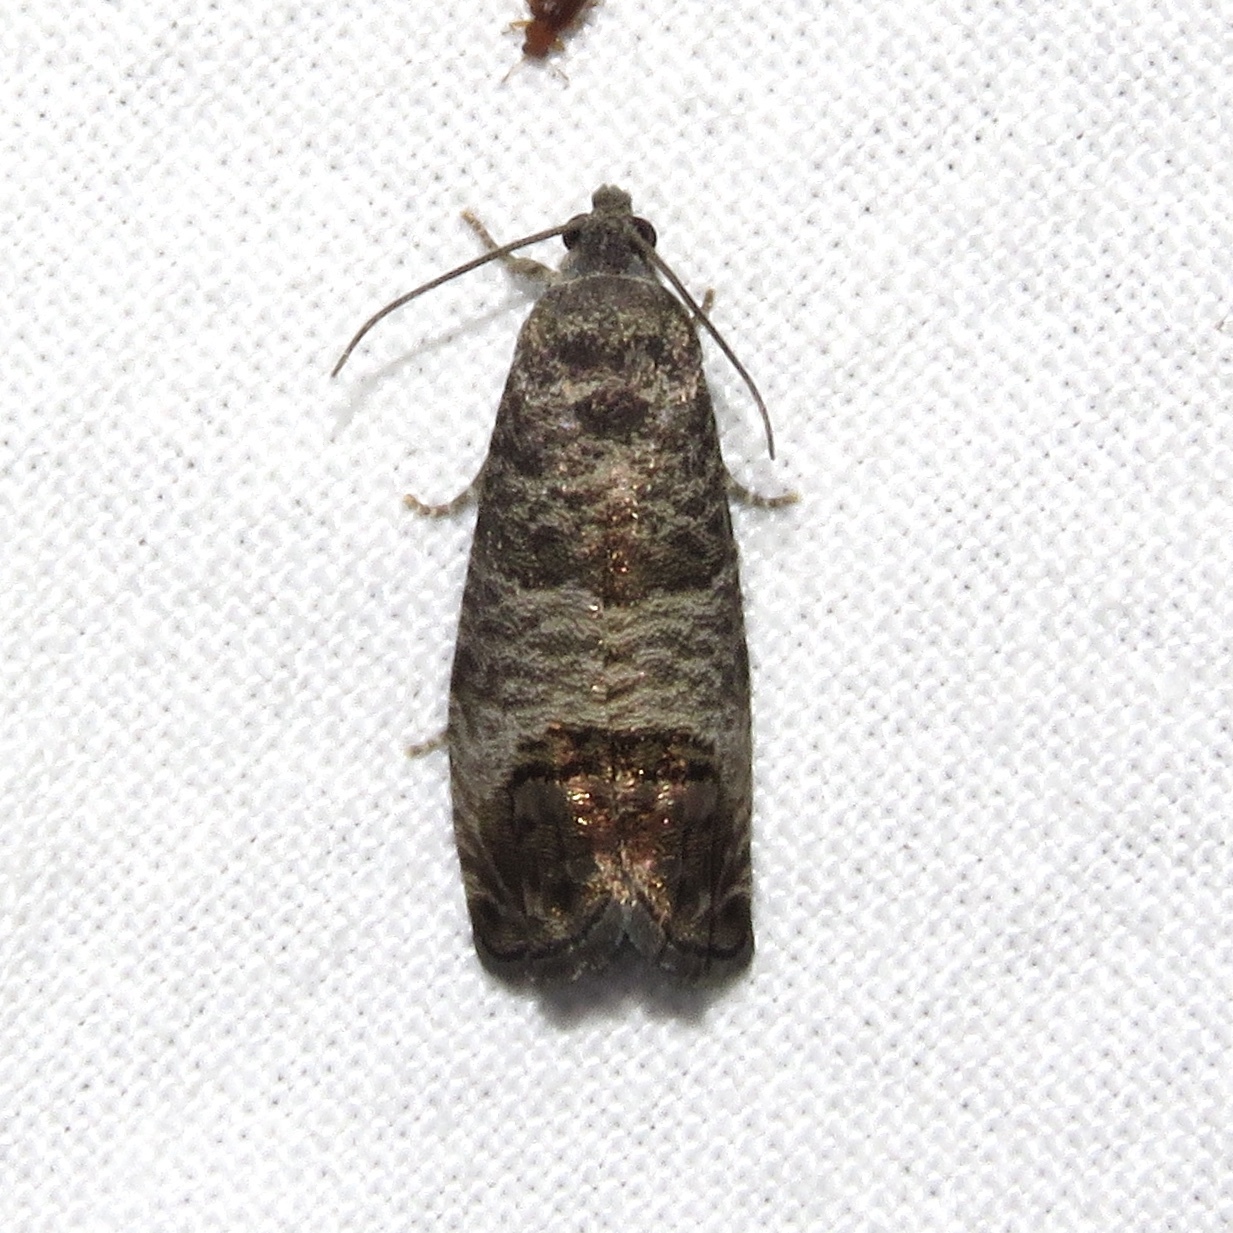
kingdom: Animalia
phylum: Arthropoda
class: Insecta
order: Lepidoptera
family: Tortricidae
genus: Cydia
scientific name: Cydia pomonella
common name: Codling moth
